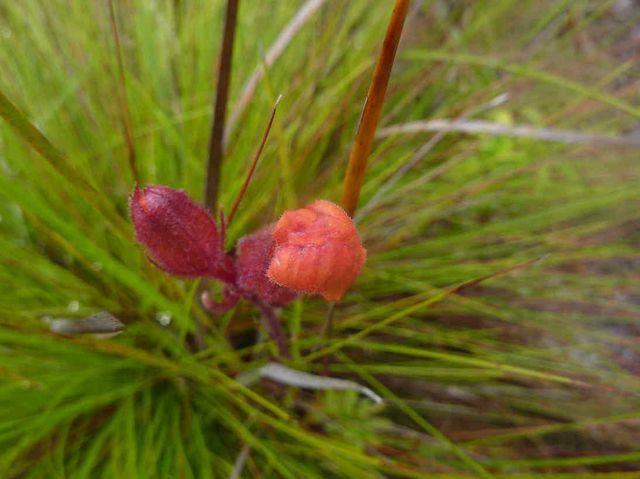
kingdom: Plantae
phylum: Tracheophyta
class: Magnoliopsida
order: Lamiales
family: Orobanchaceae
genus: Harveya
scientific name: Harveya stenosiphon
